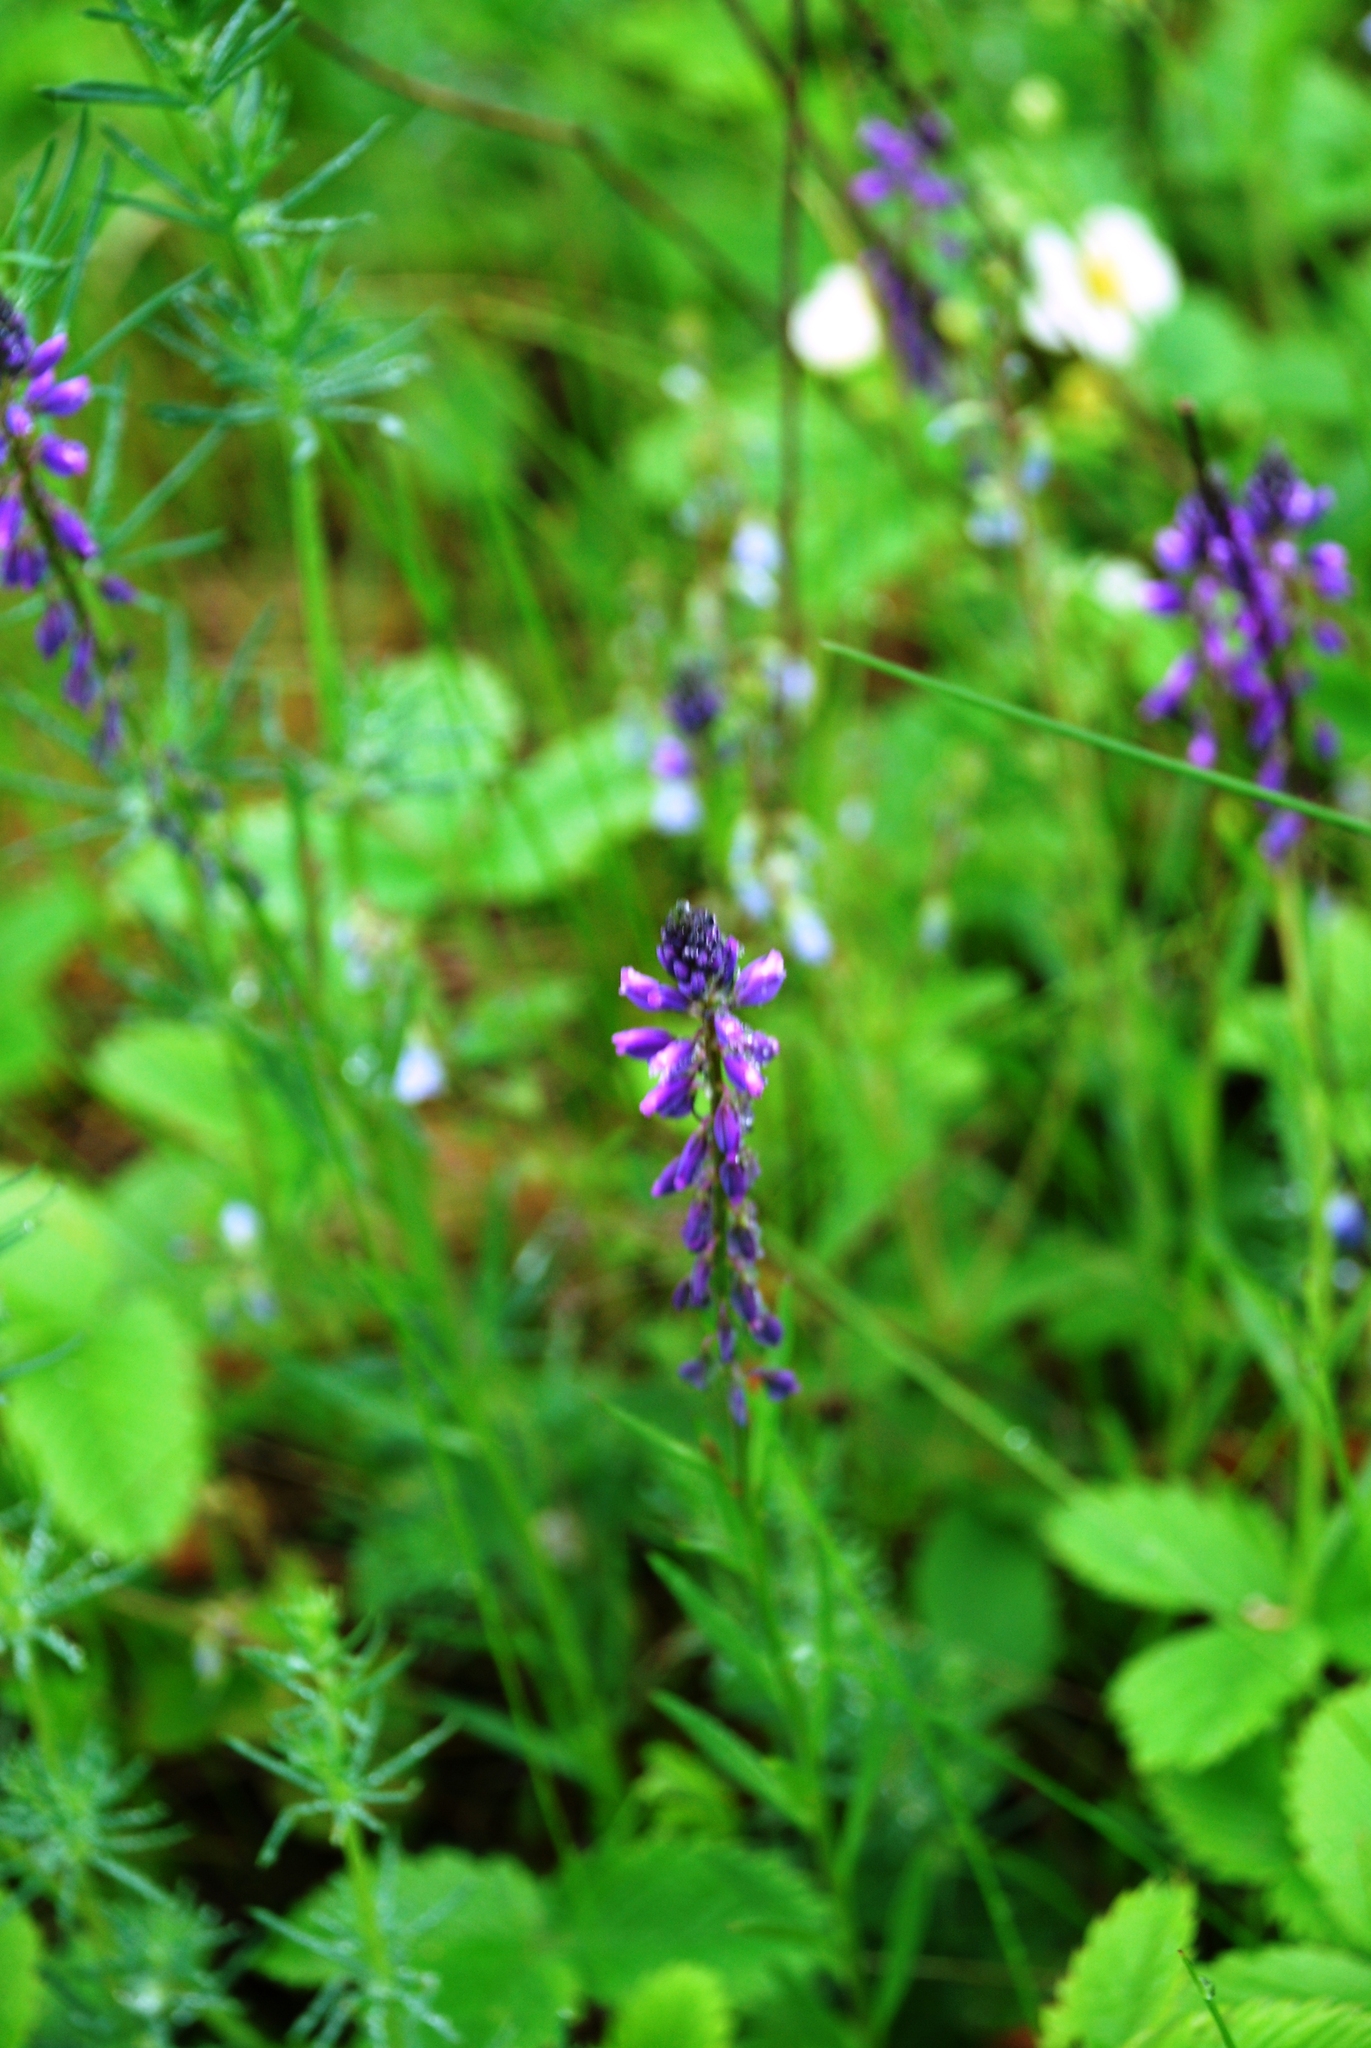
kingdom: Plantae
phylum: Tracheophyta
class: Magnoliopsida
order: Fabales
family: Polygalaceae
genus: Polygala
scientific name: Polygala comosa
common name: Tufted milkwort
